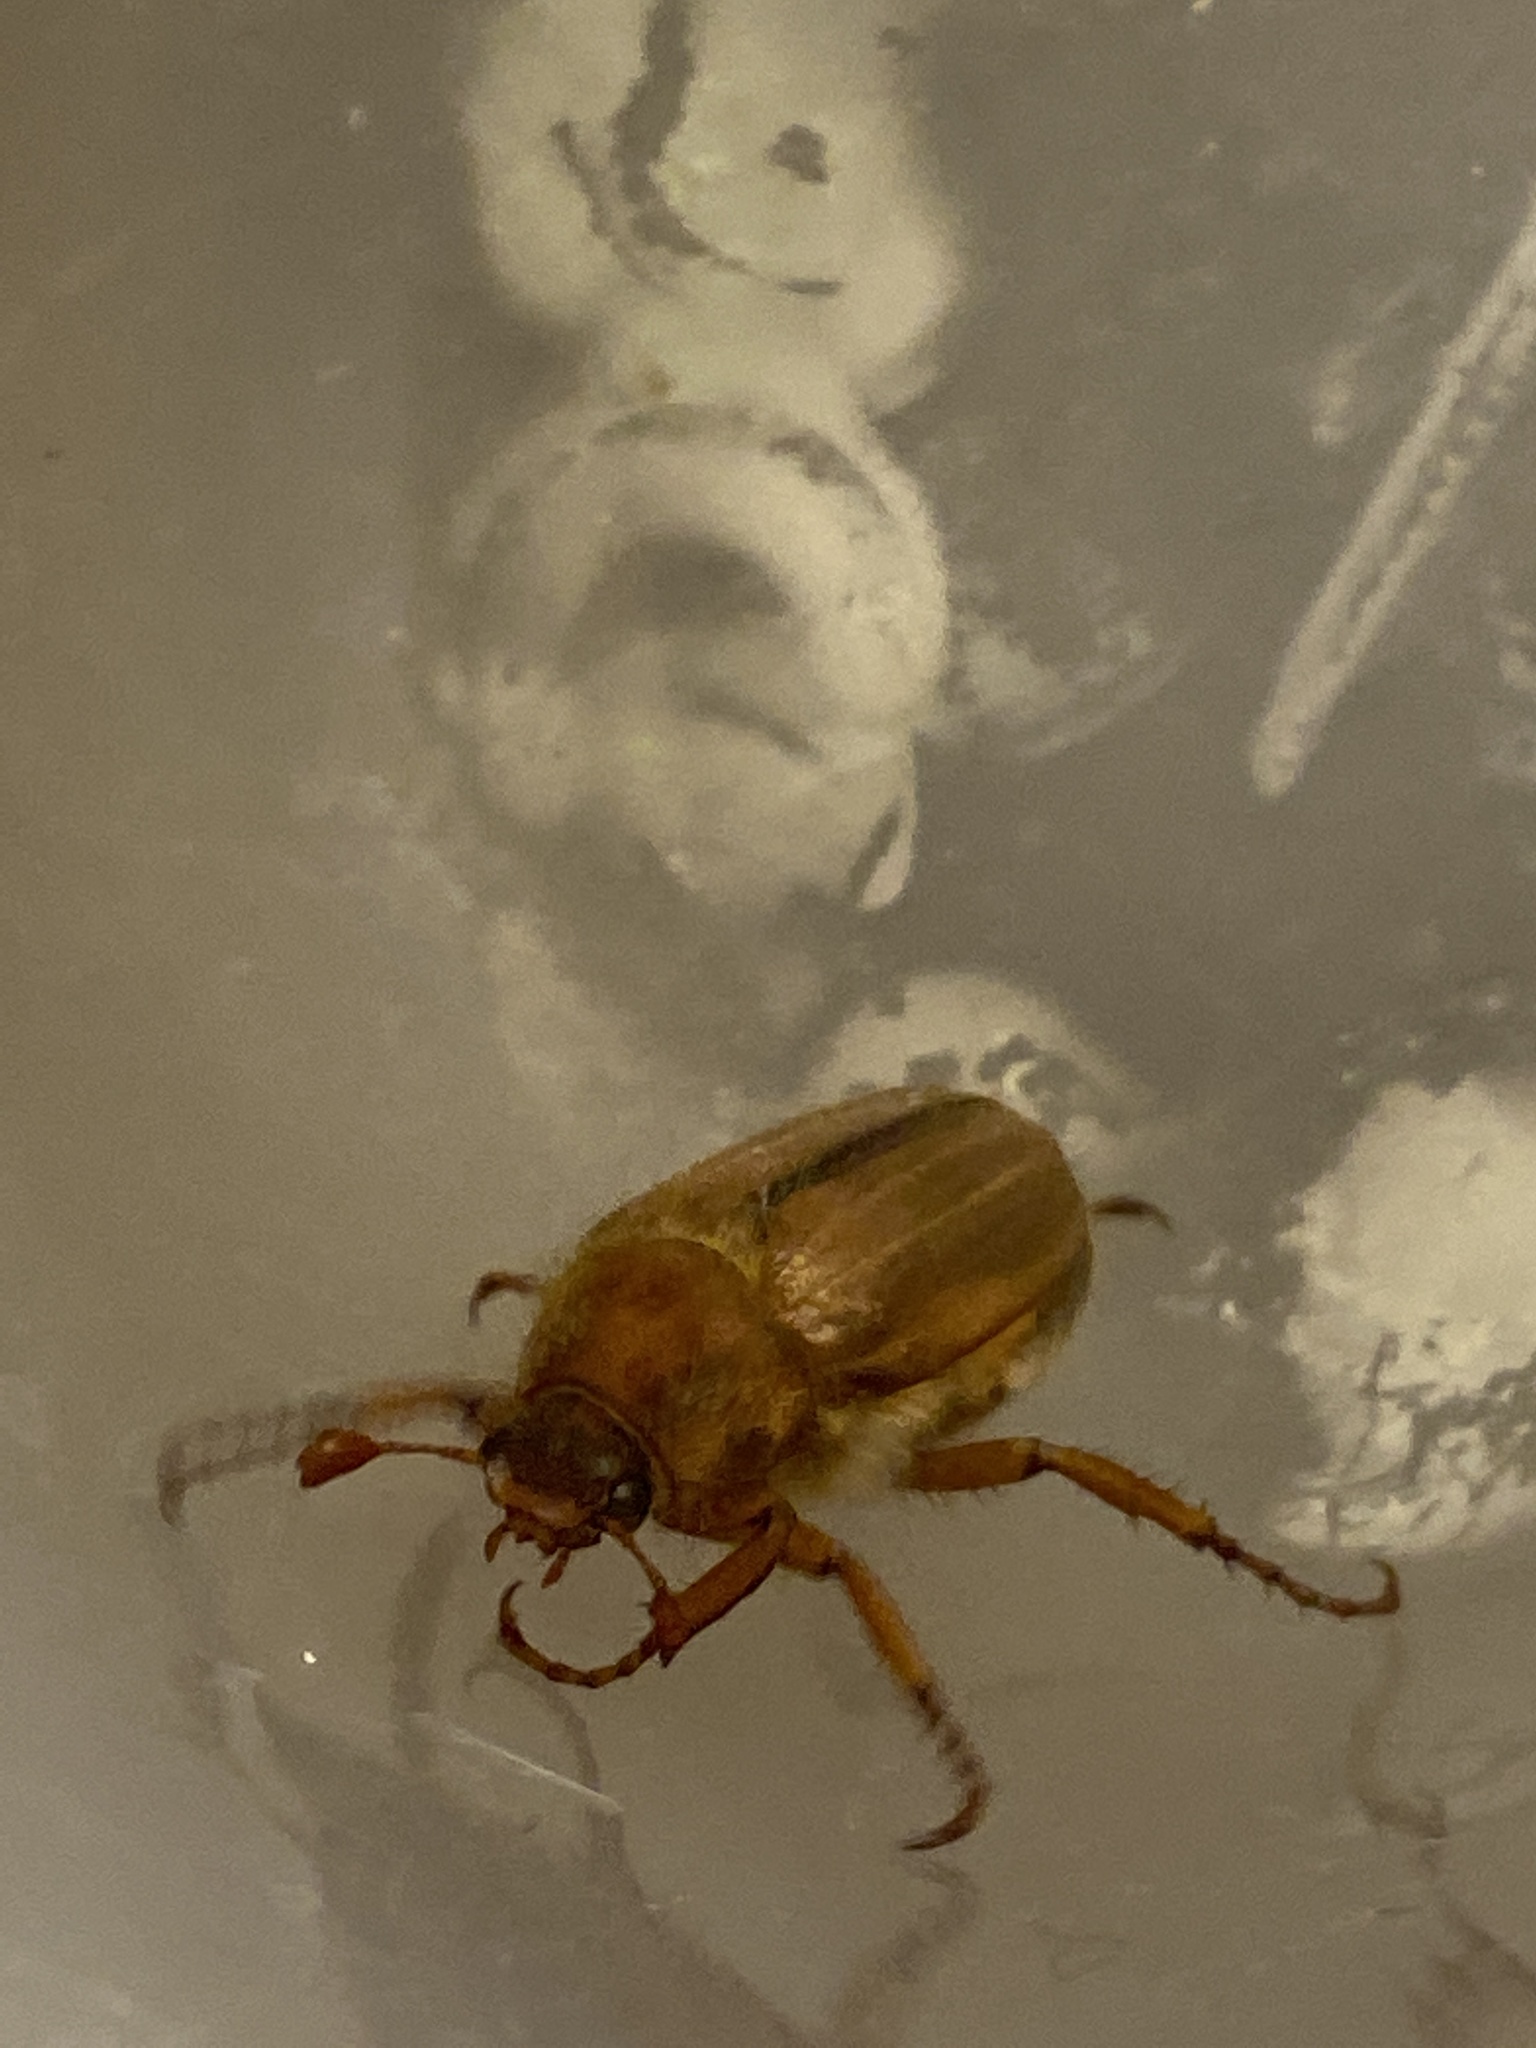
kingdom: Animalia
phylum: Arthropoda
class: Insecta
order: Coleoptera
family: Scarabaeidae
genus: Amphimallon
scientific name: Amphimallon solstitiale
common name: Summer chafer
